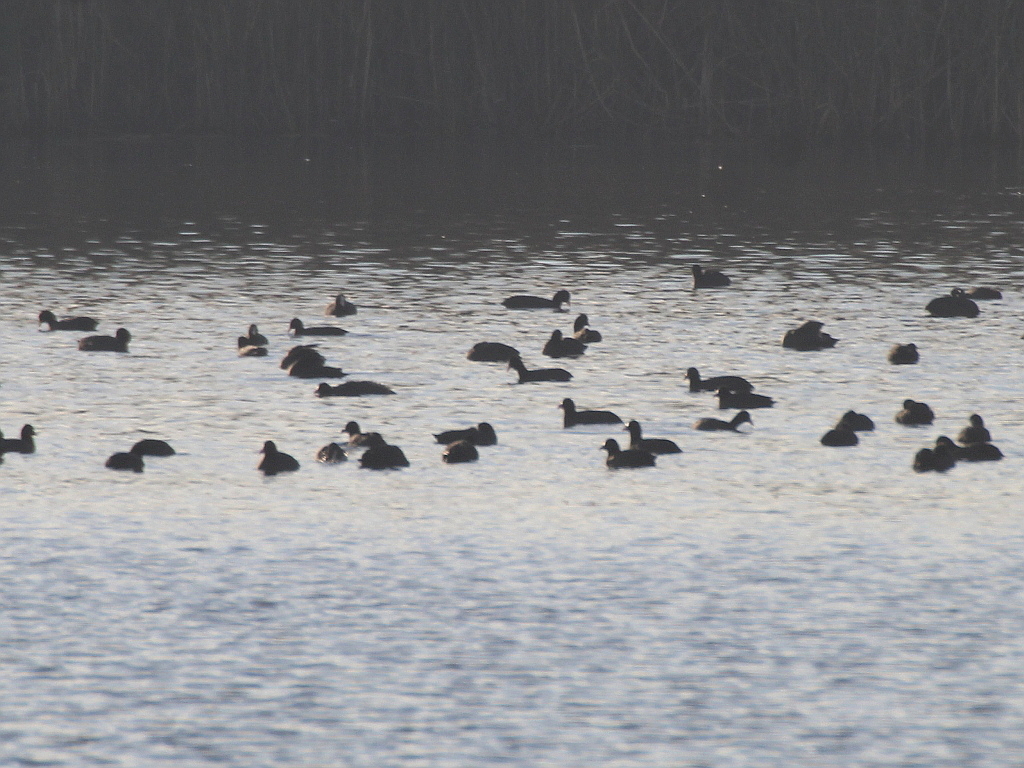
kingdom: Animalia
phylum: Chordata
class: Aves
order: Gruiformes
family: Rallidae
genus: Fulica
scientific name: Fulica atra
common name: Eurasian coot
